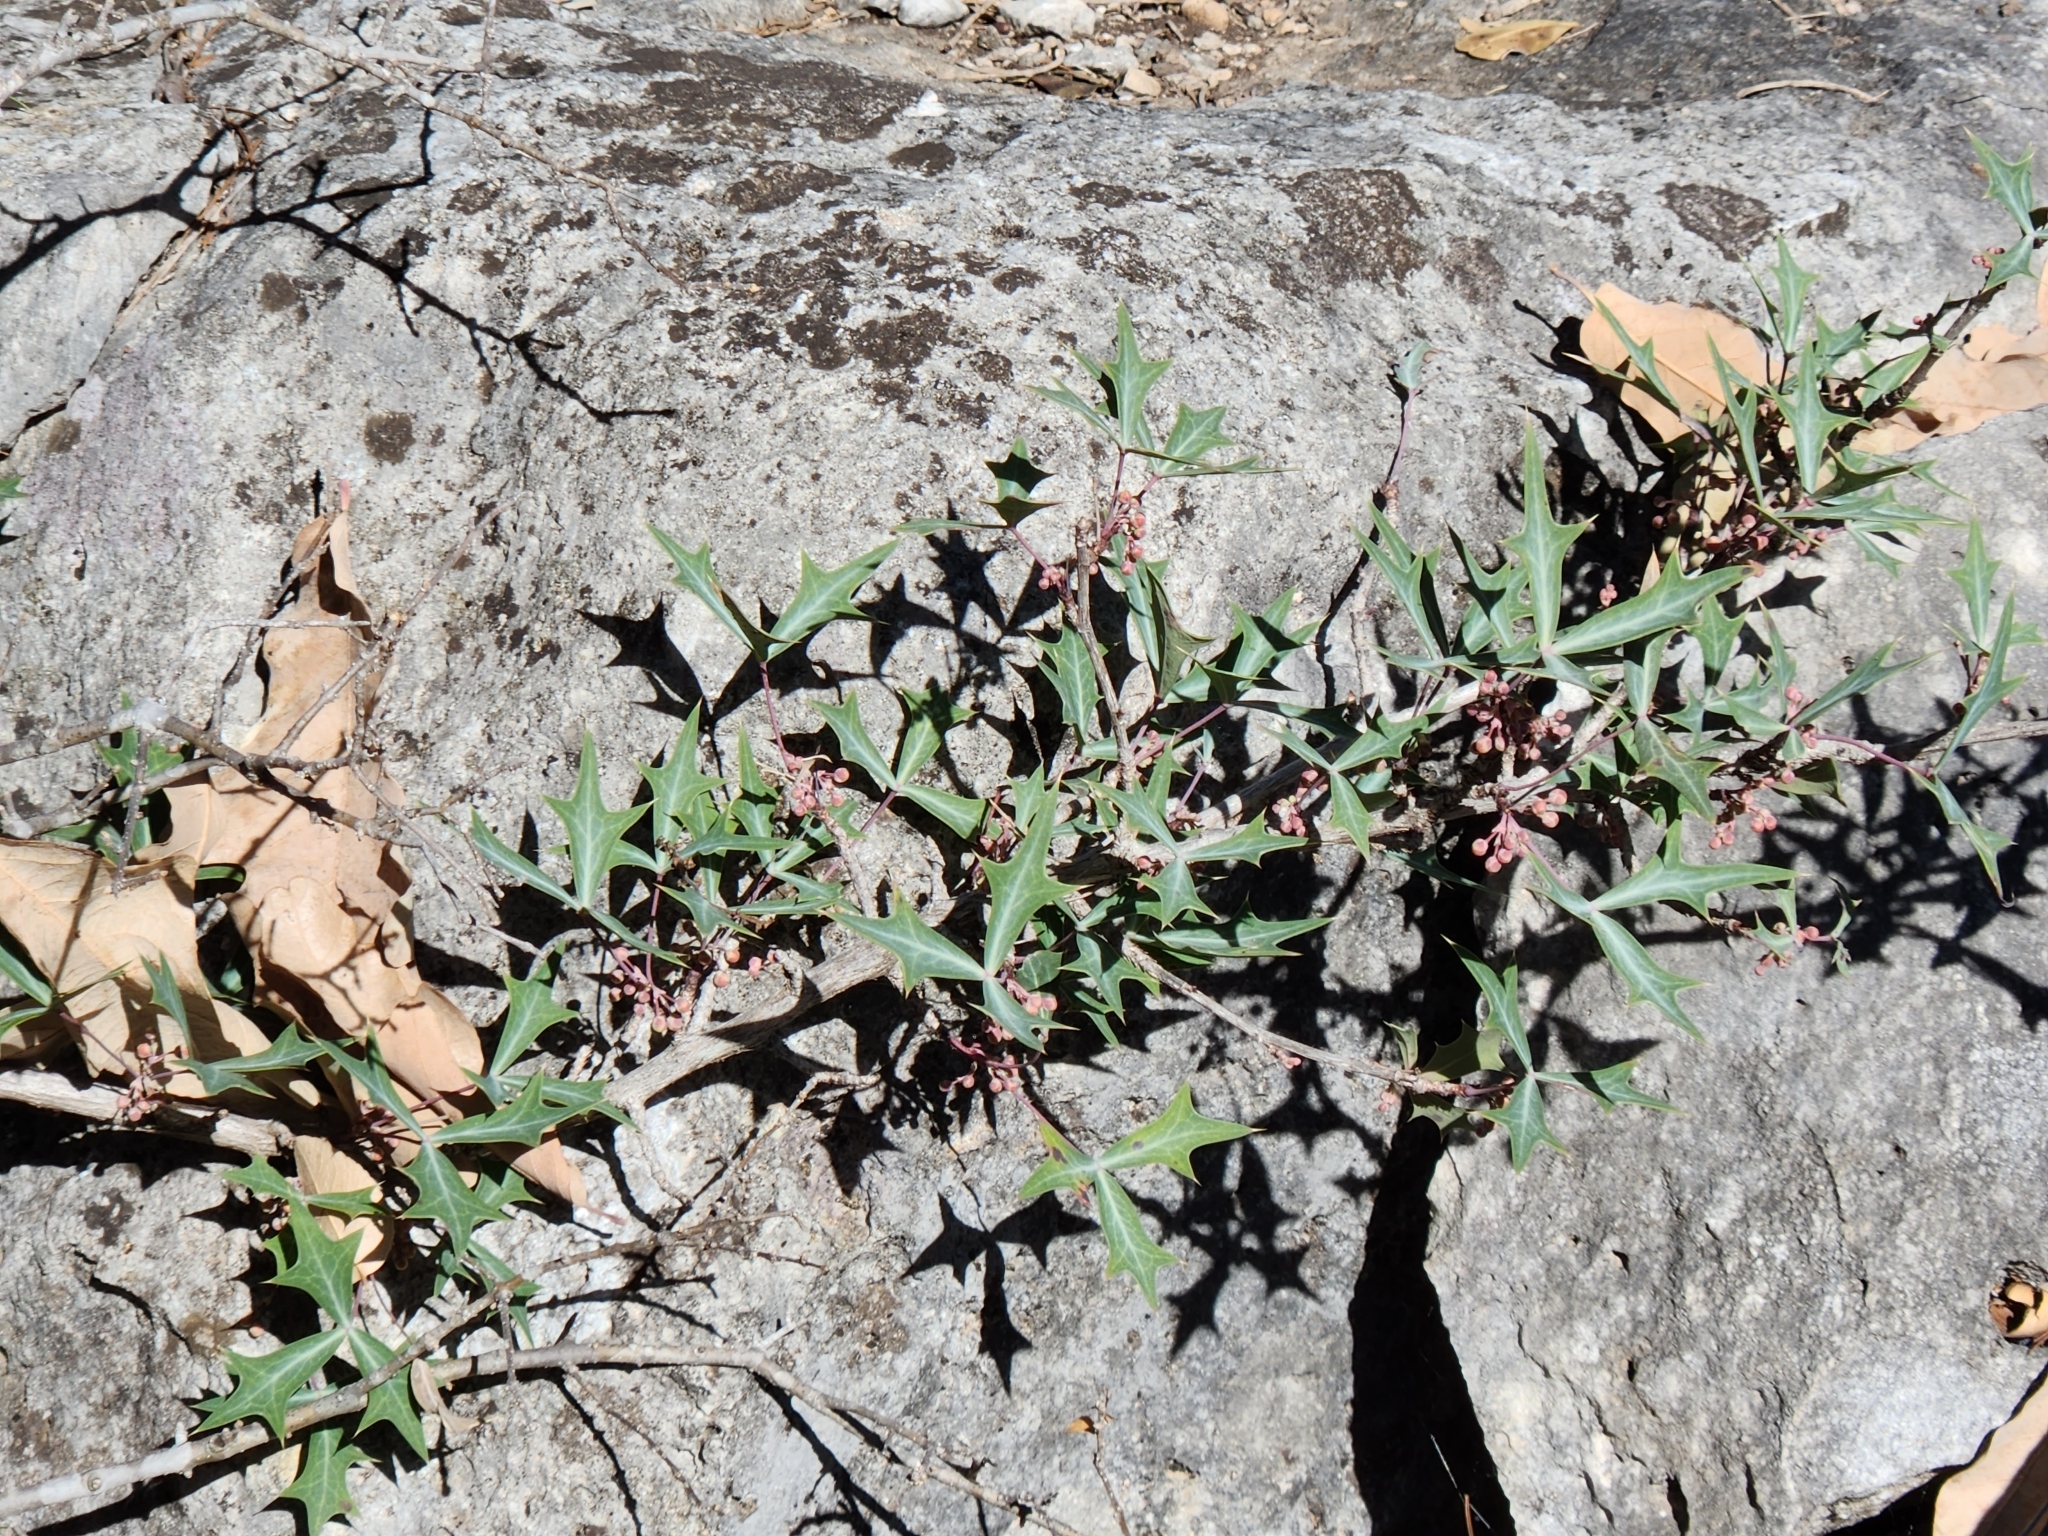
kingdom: Plantae
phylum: Tracheophyta
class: Magnoliopsida
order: Ranunculales
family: Berberidaceae
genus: Alloberberis
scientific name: Alloberberis trifoliolata
